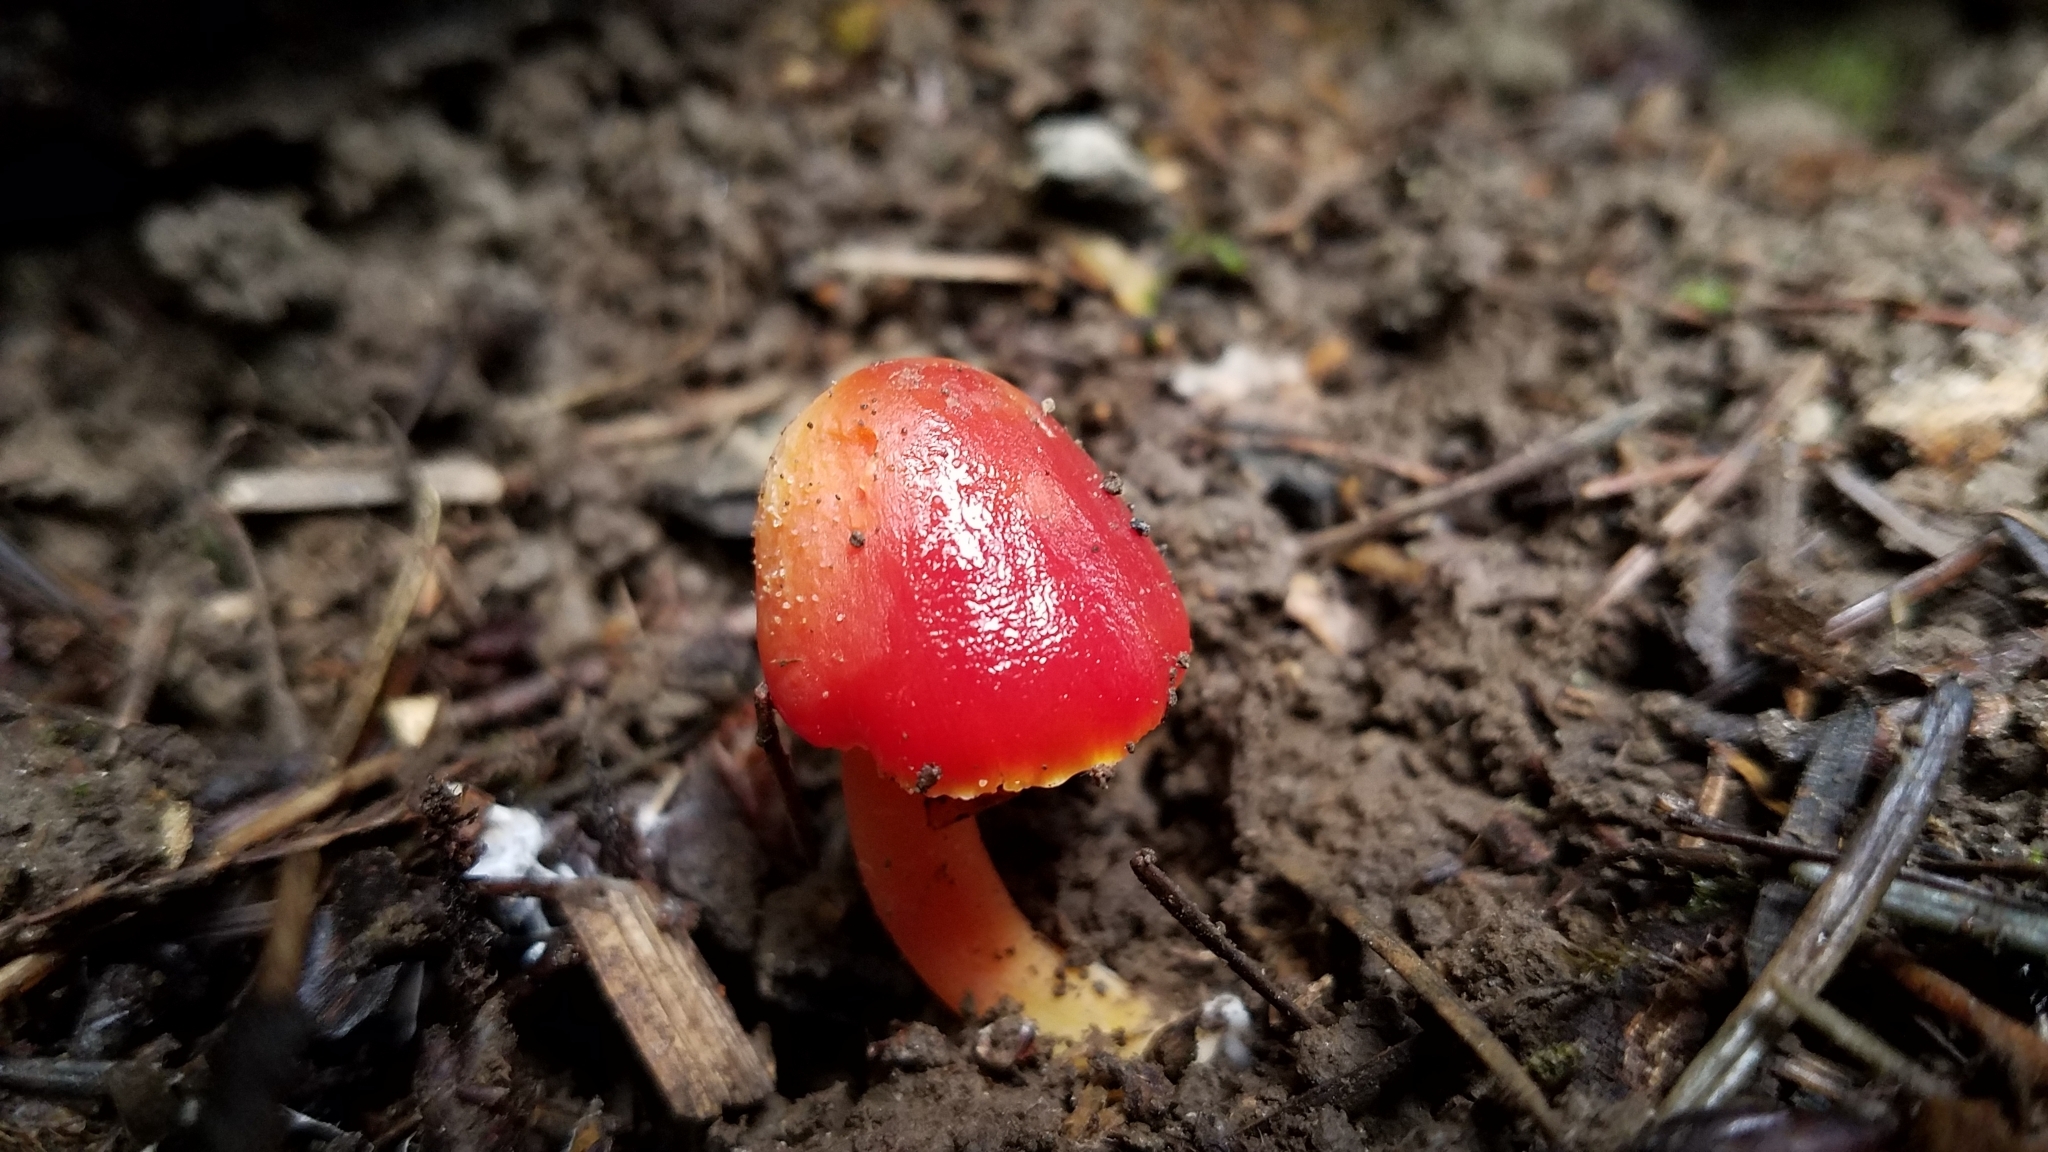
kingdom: Fungi
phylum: Basidiomycota
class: Agaricomycetes
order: Agaricales
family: Hygrophoraceae
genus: Hygrocybe
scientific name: Hygrocybe coccinea
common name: Scarlet hood
